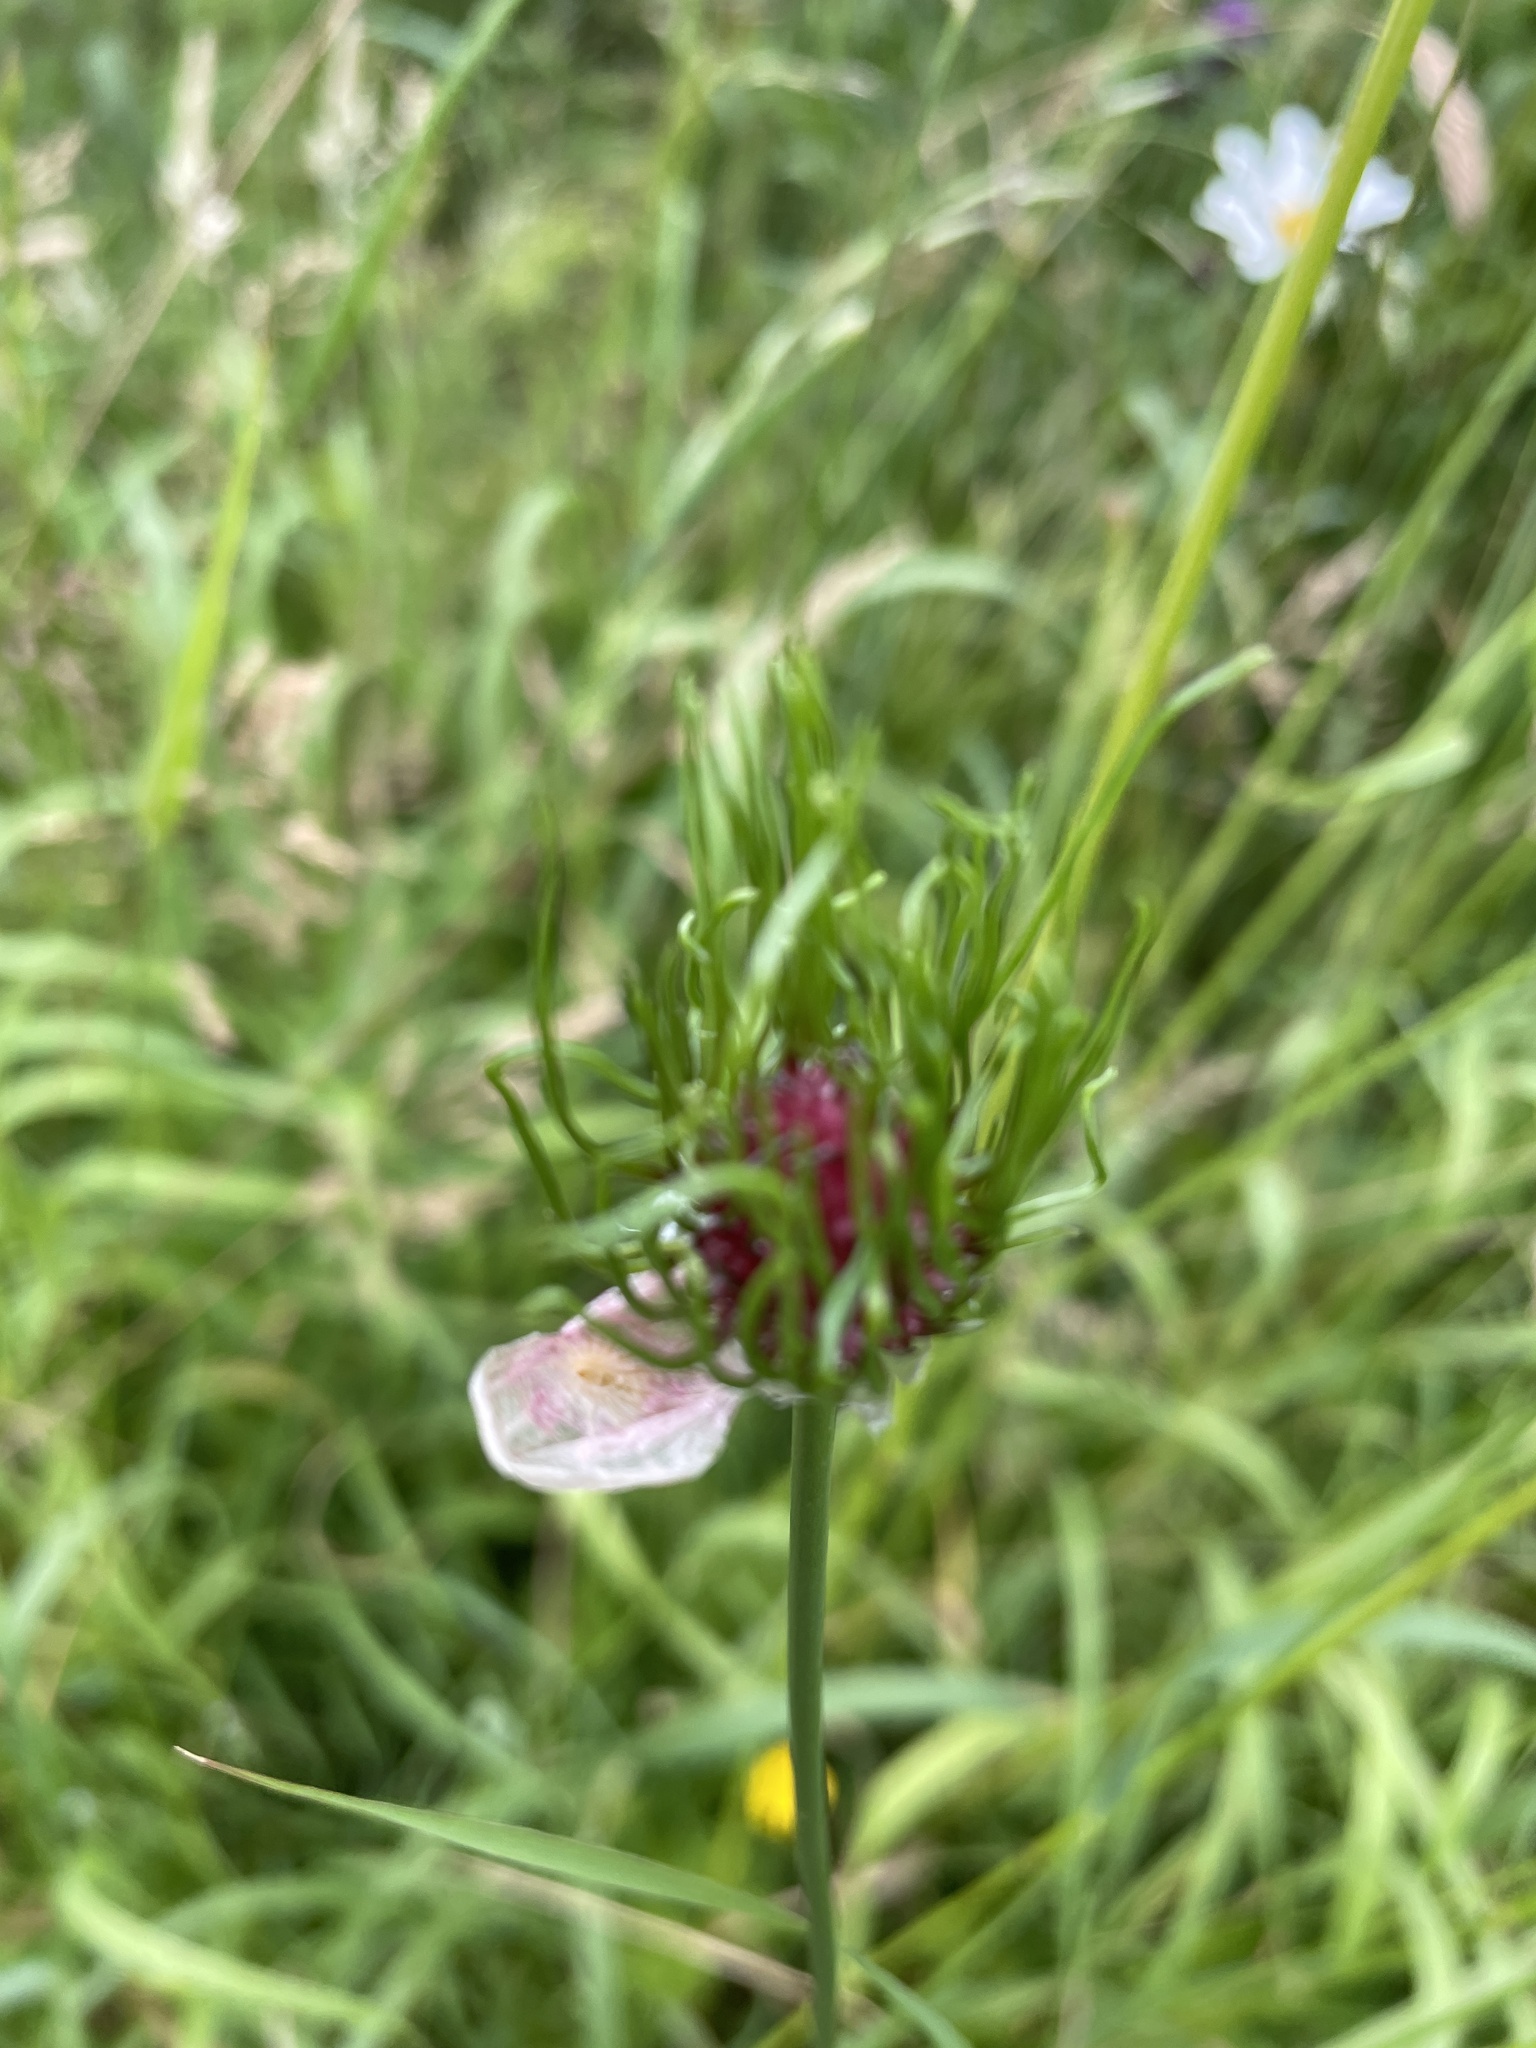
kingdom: Plantae
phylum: Tracheophyta
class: Liliopsida
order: Asparagales
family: Amaryllidaceae
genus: Allium
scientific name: Allium vineale
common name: Crow garlic
